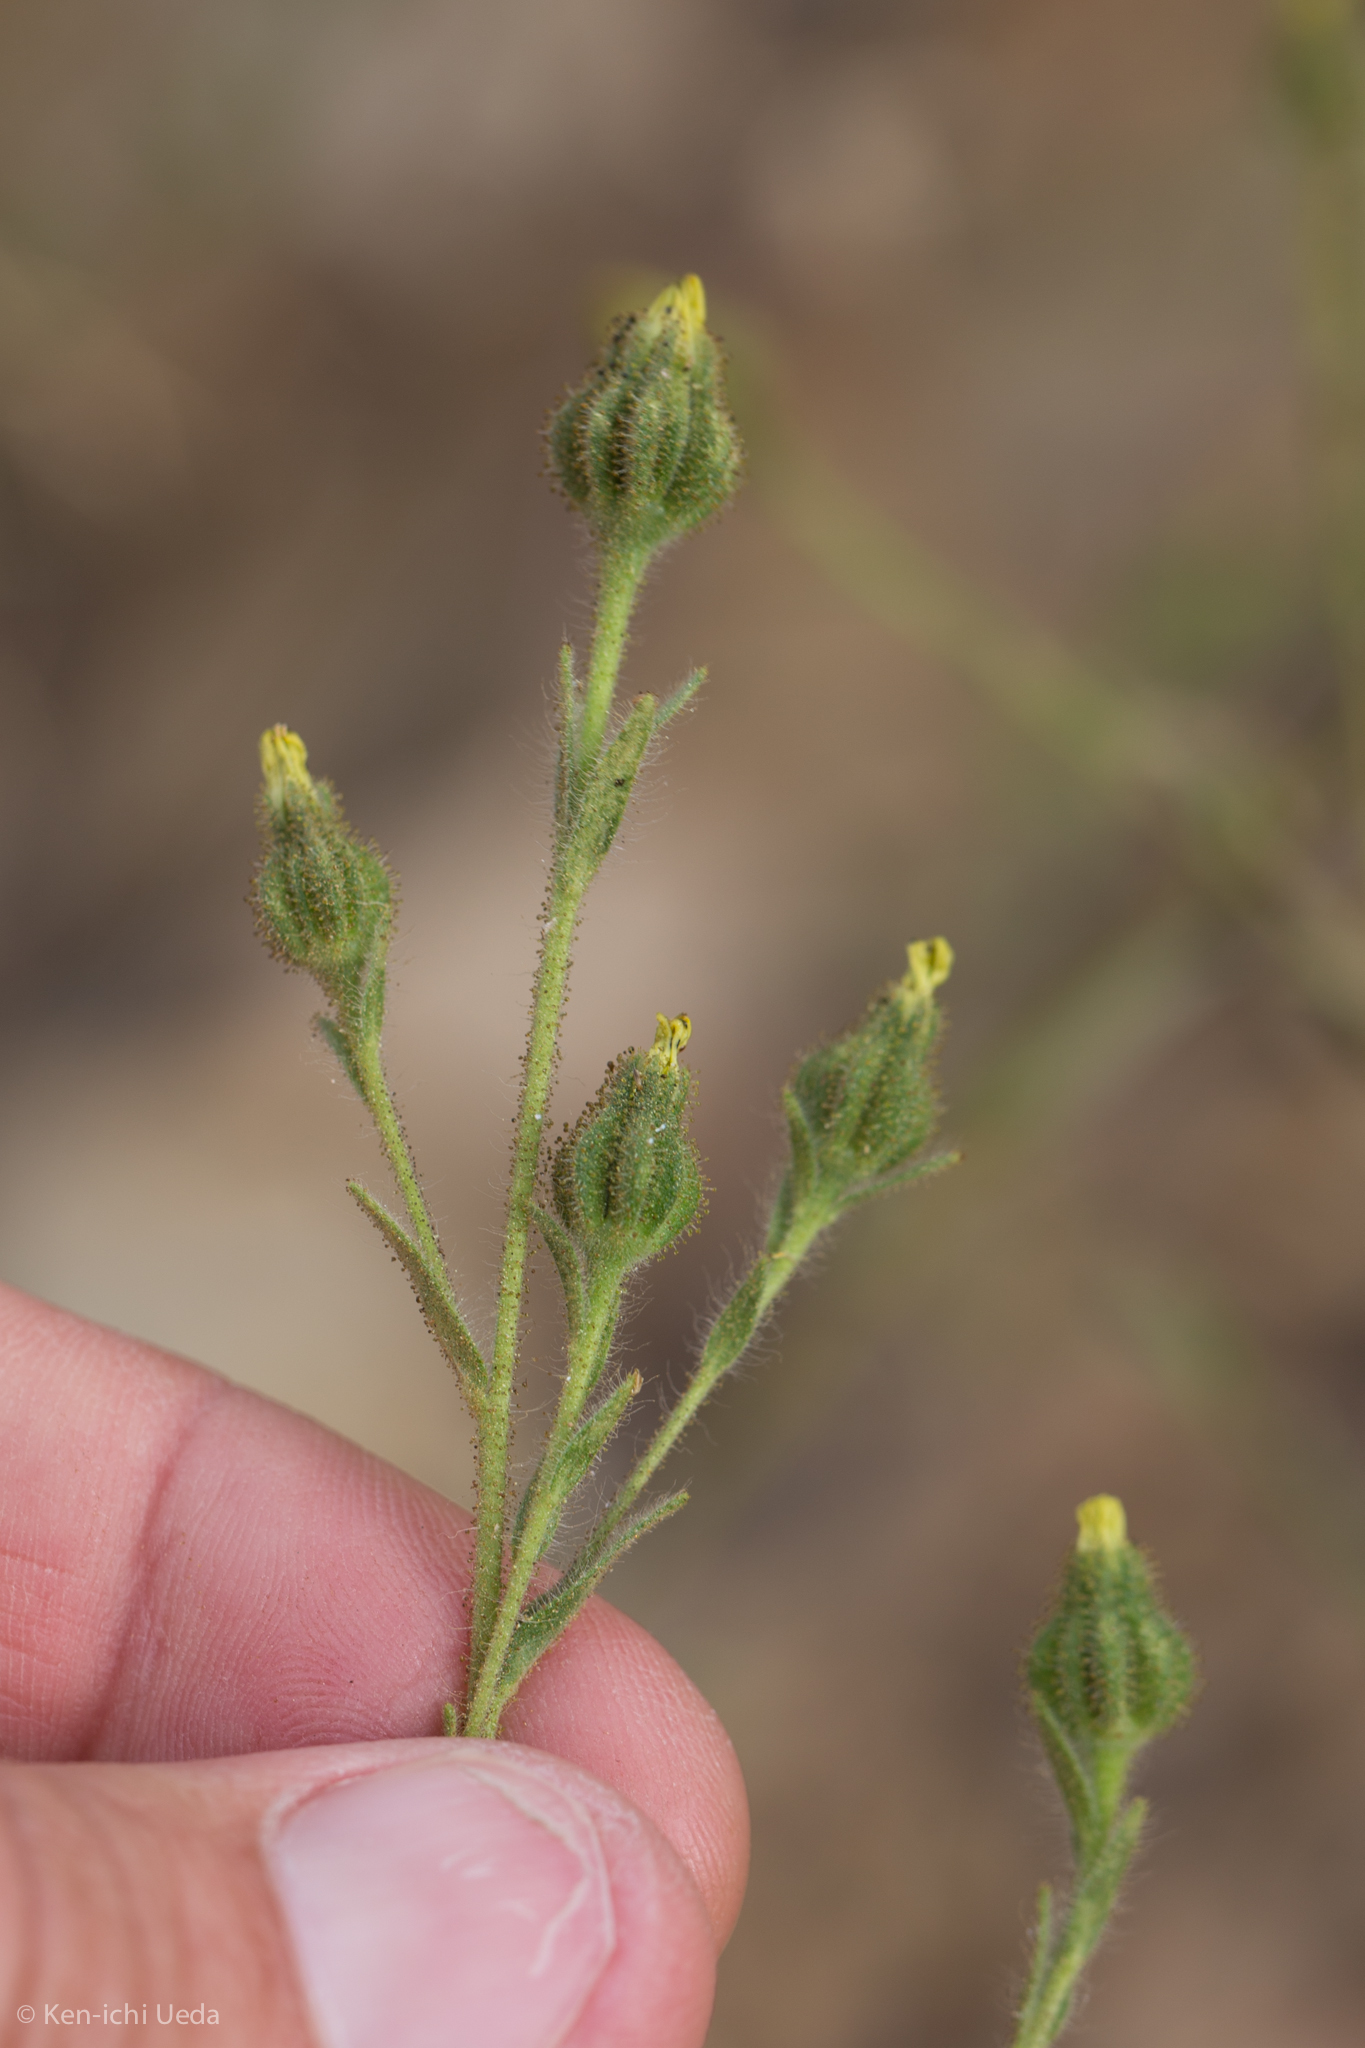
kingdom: Plantae
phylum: Tracheophyta
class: Magnoliopsida
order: Asterales
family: Asteraceae
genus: Madia
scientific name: Madia gracilis
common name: Grassy tarweed
